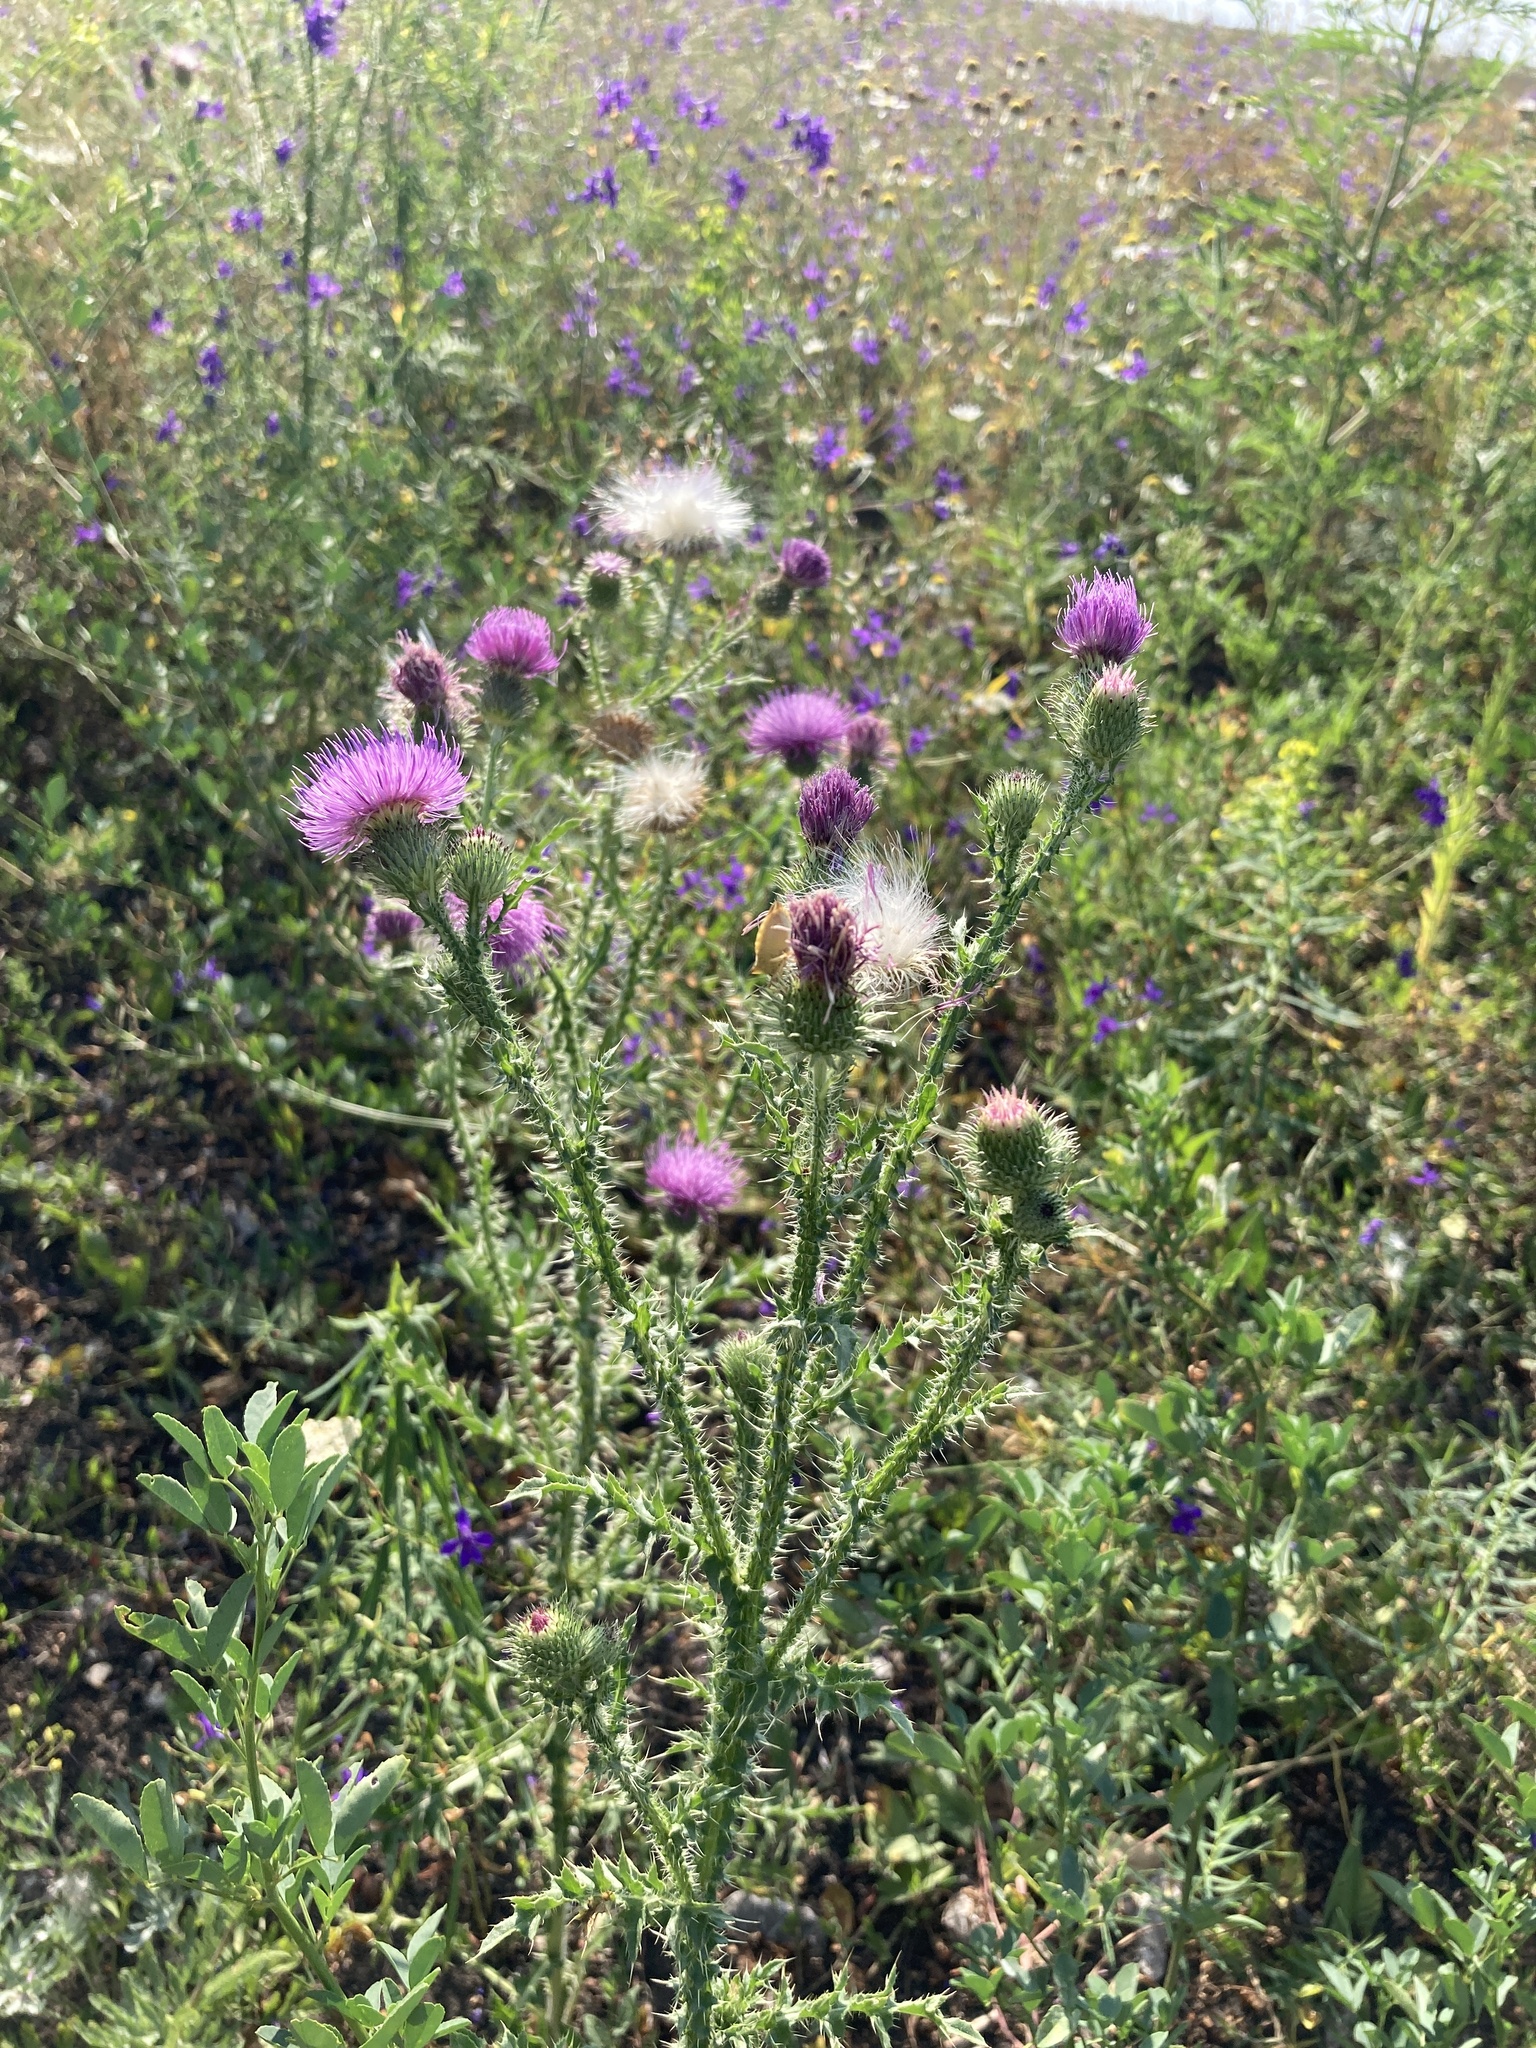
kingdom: Plantae
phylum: Tracheophyta
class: Magnoliopsida
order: Asterales
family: Asteraceae
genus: Carduus
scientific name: Carduus acanthoides
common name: Plumeless thistle
